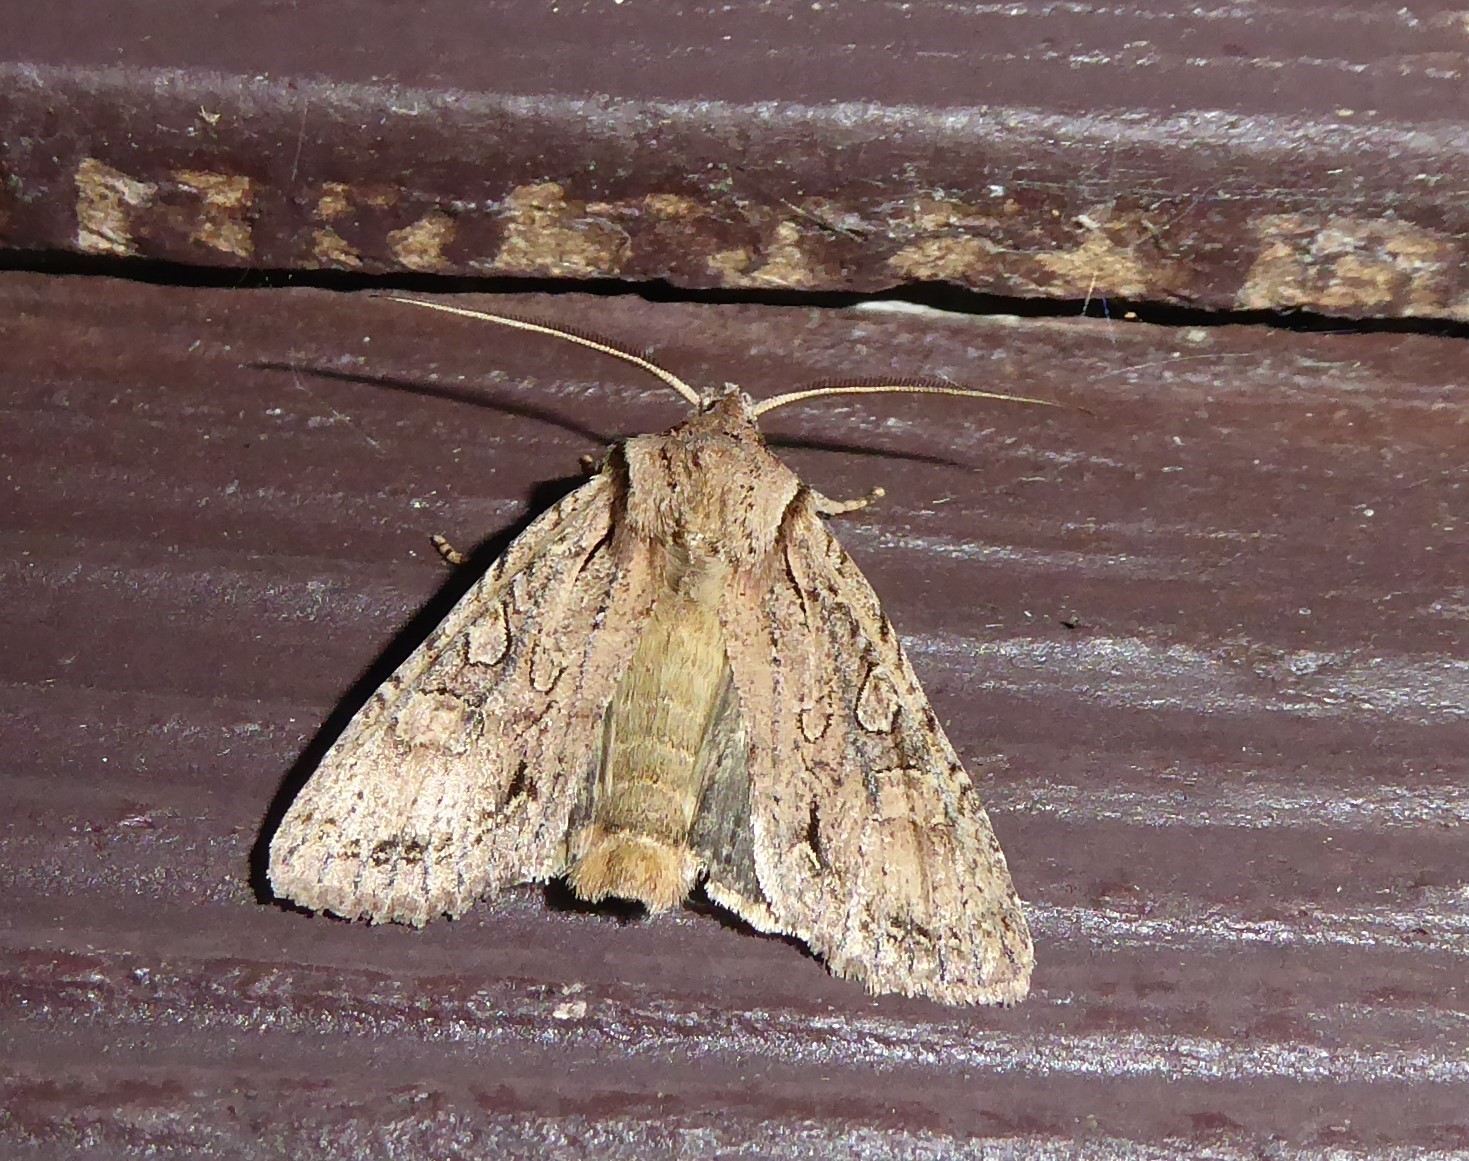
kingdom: Animalia
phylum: Arthropoda
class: Insecta
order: Lepidoptera
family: Noctuidae
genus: Ichneutica
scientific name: Ichneutica
